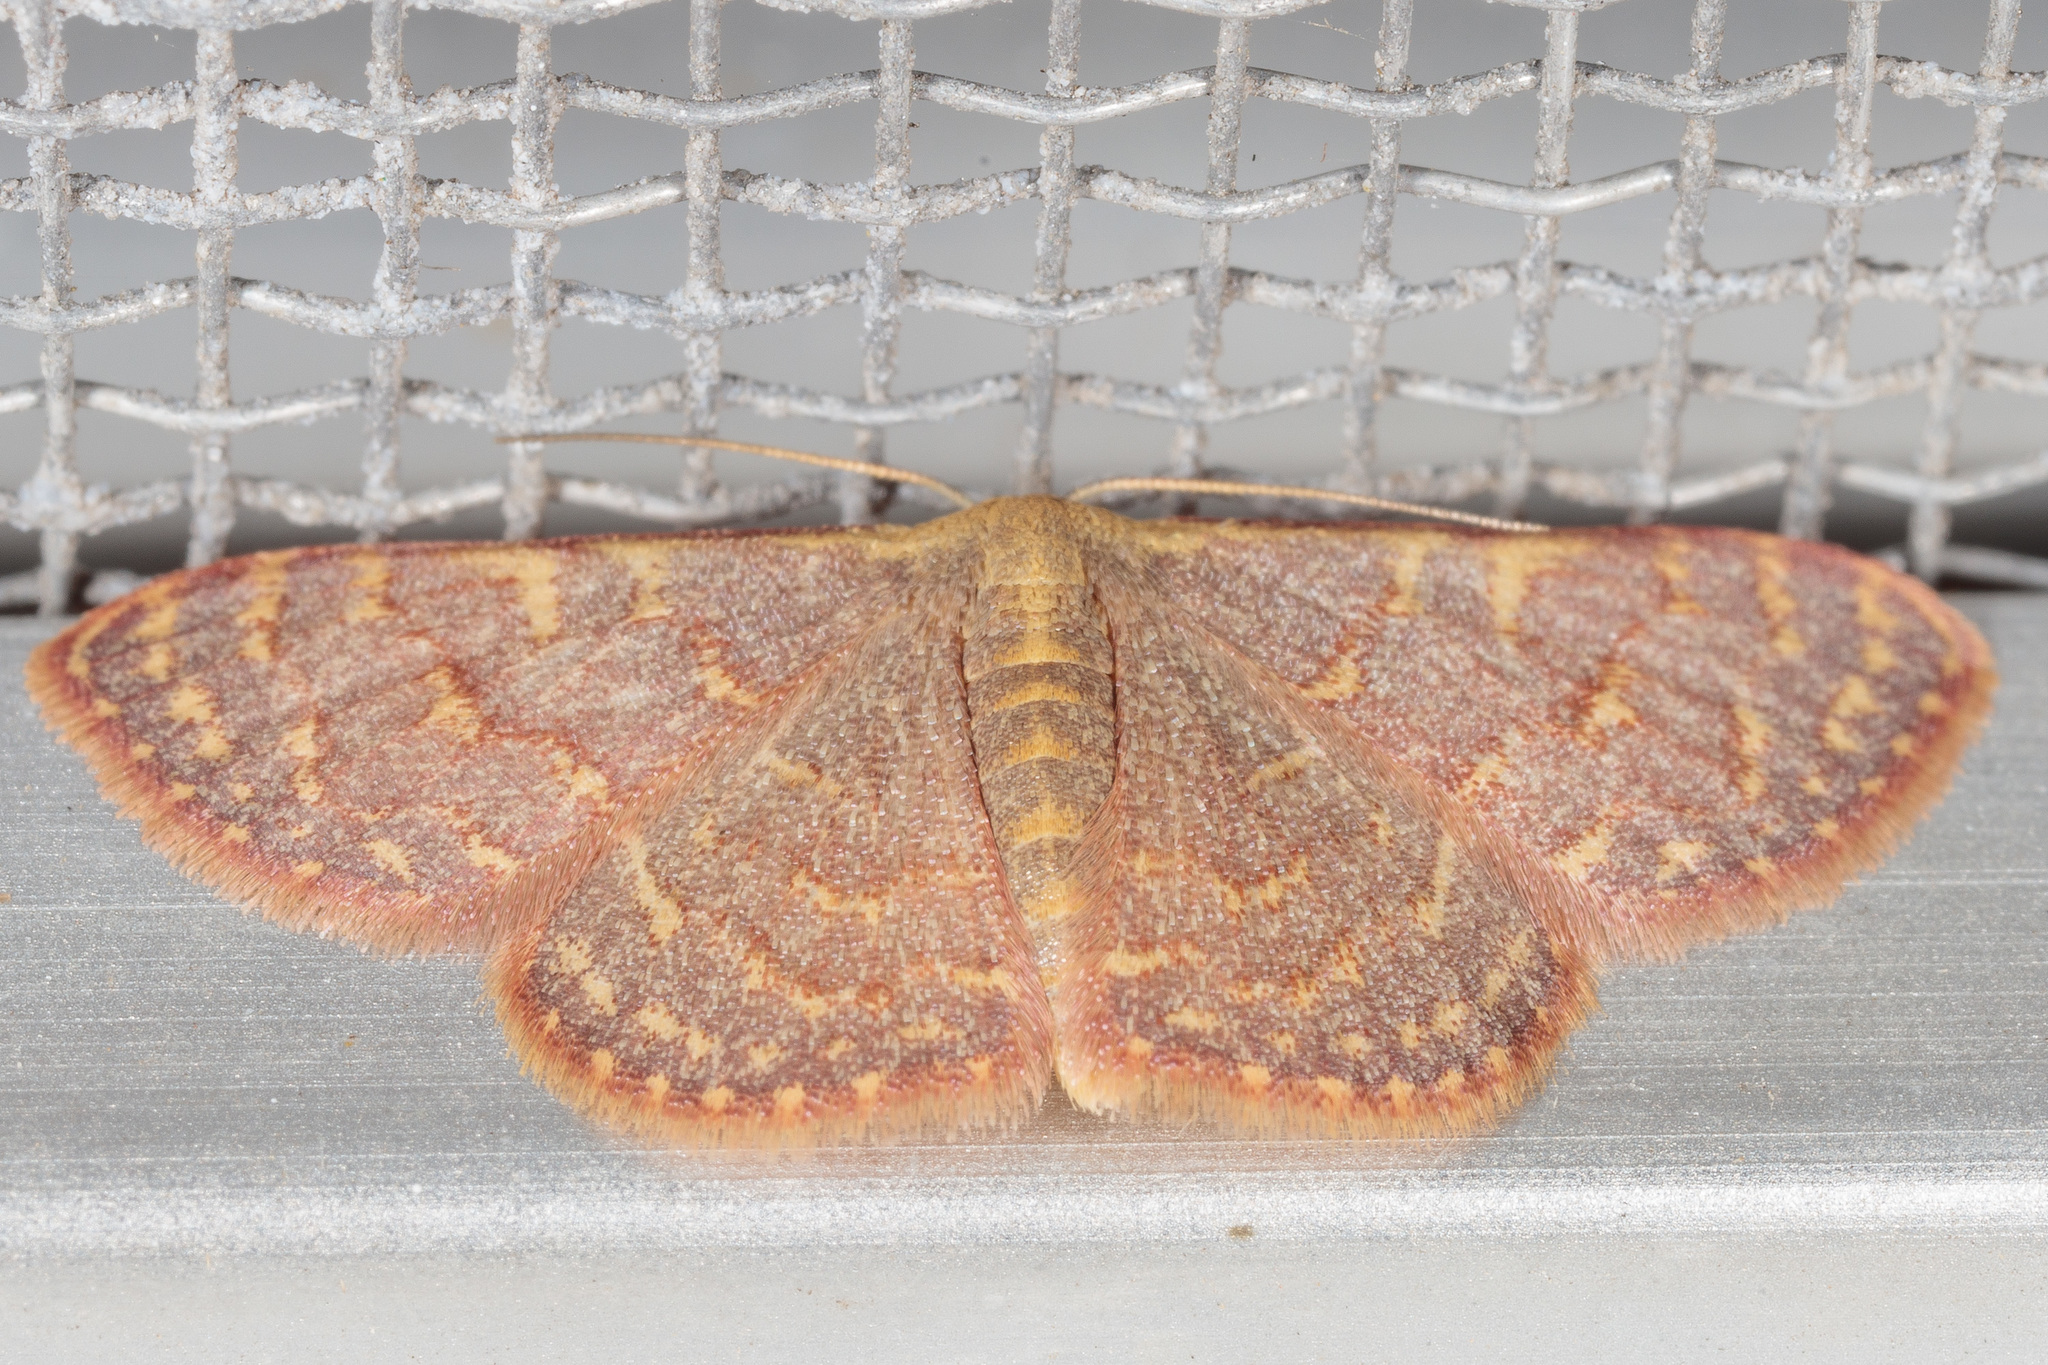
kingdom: Animalia
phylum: Arthropoda
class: Insecta
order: Lepidoptera
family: Geometridae
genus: Leptostales
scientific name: Leptostales pannaria
